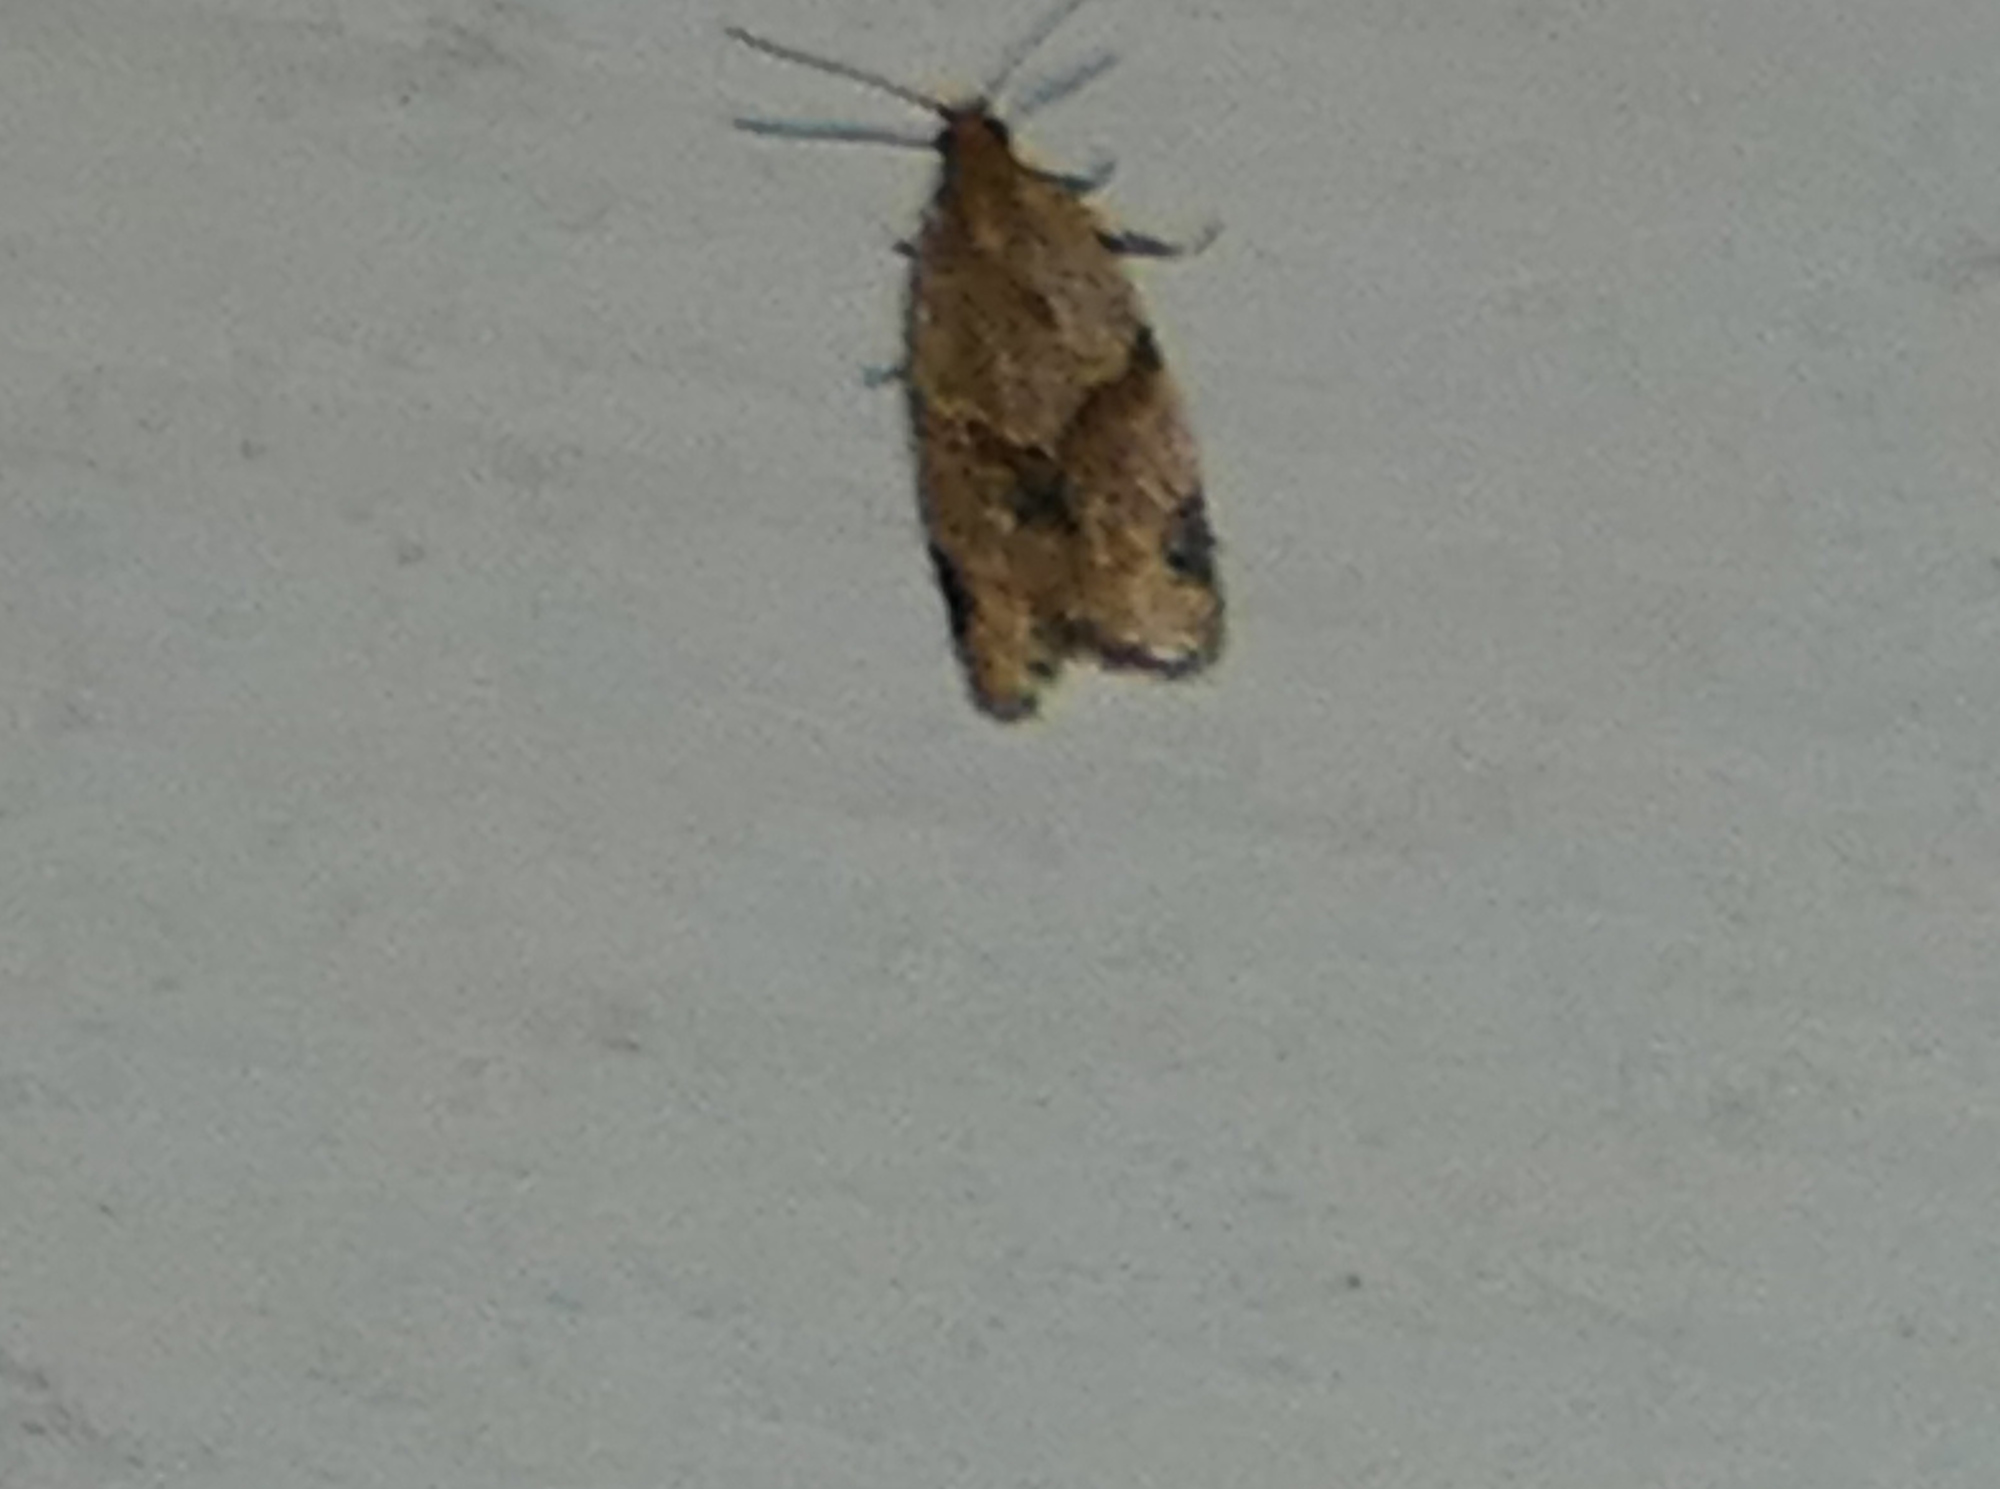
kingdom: Animalia
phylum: Arthropoda
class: Insecta
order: Lepidoptera
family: Tortricidae
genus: Clepsis
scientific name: Clepsis peritana
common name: Garden tortrix
